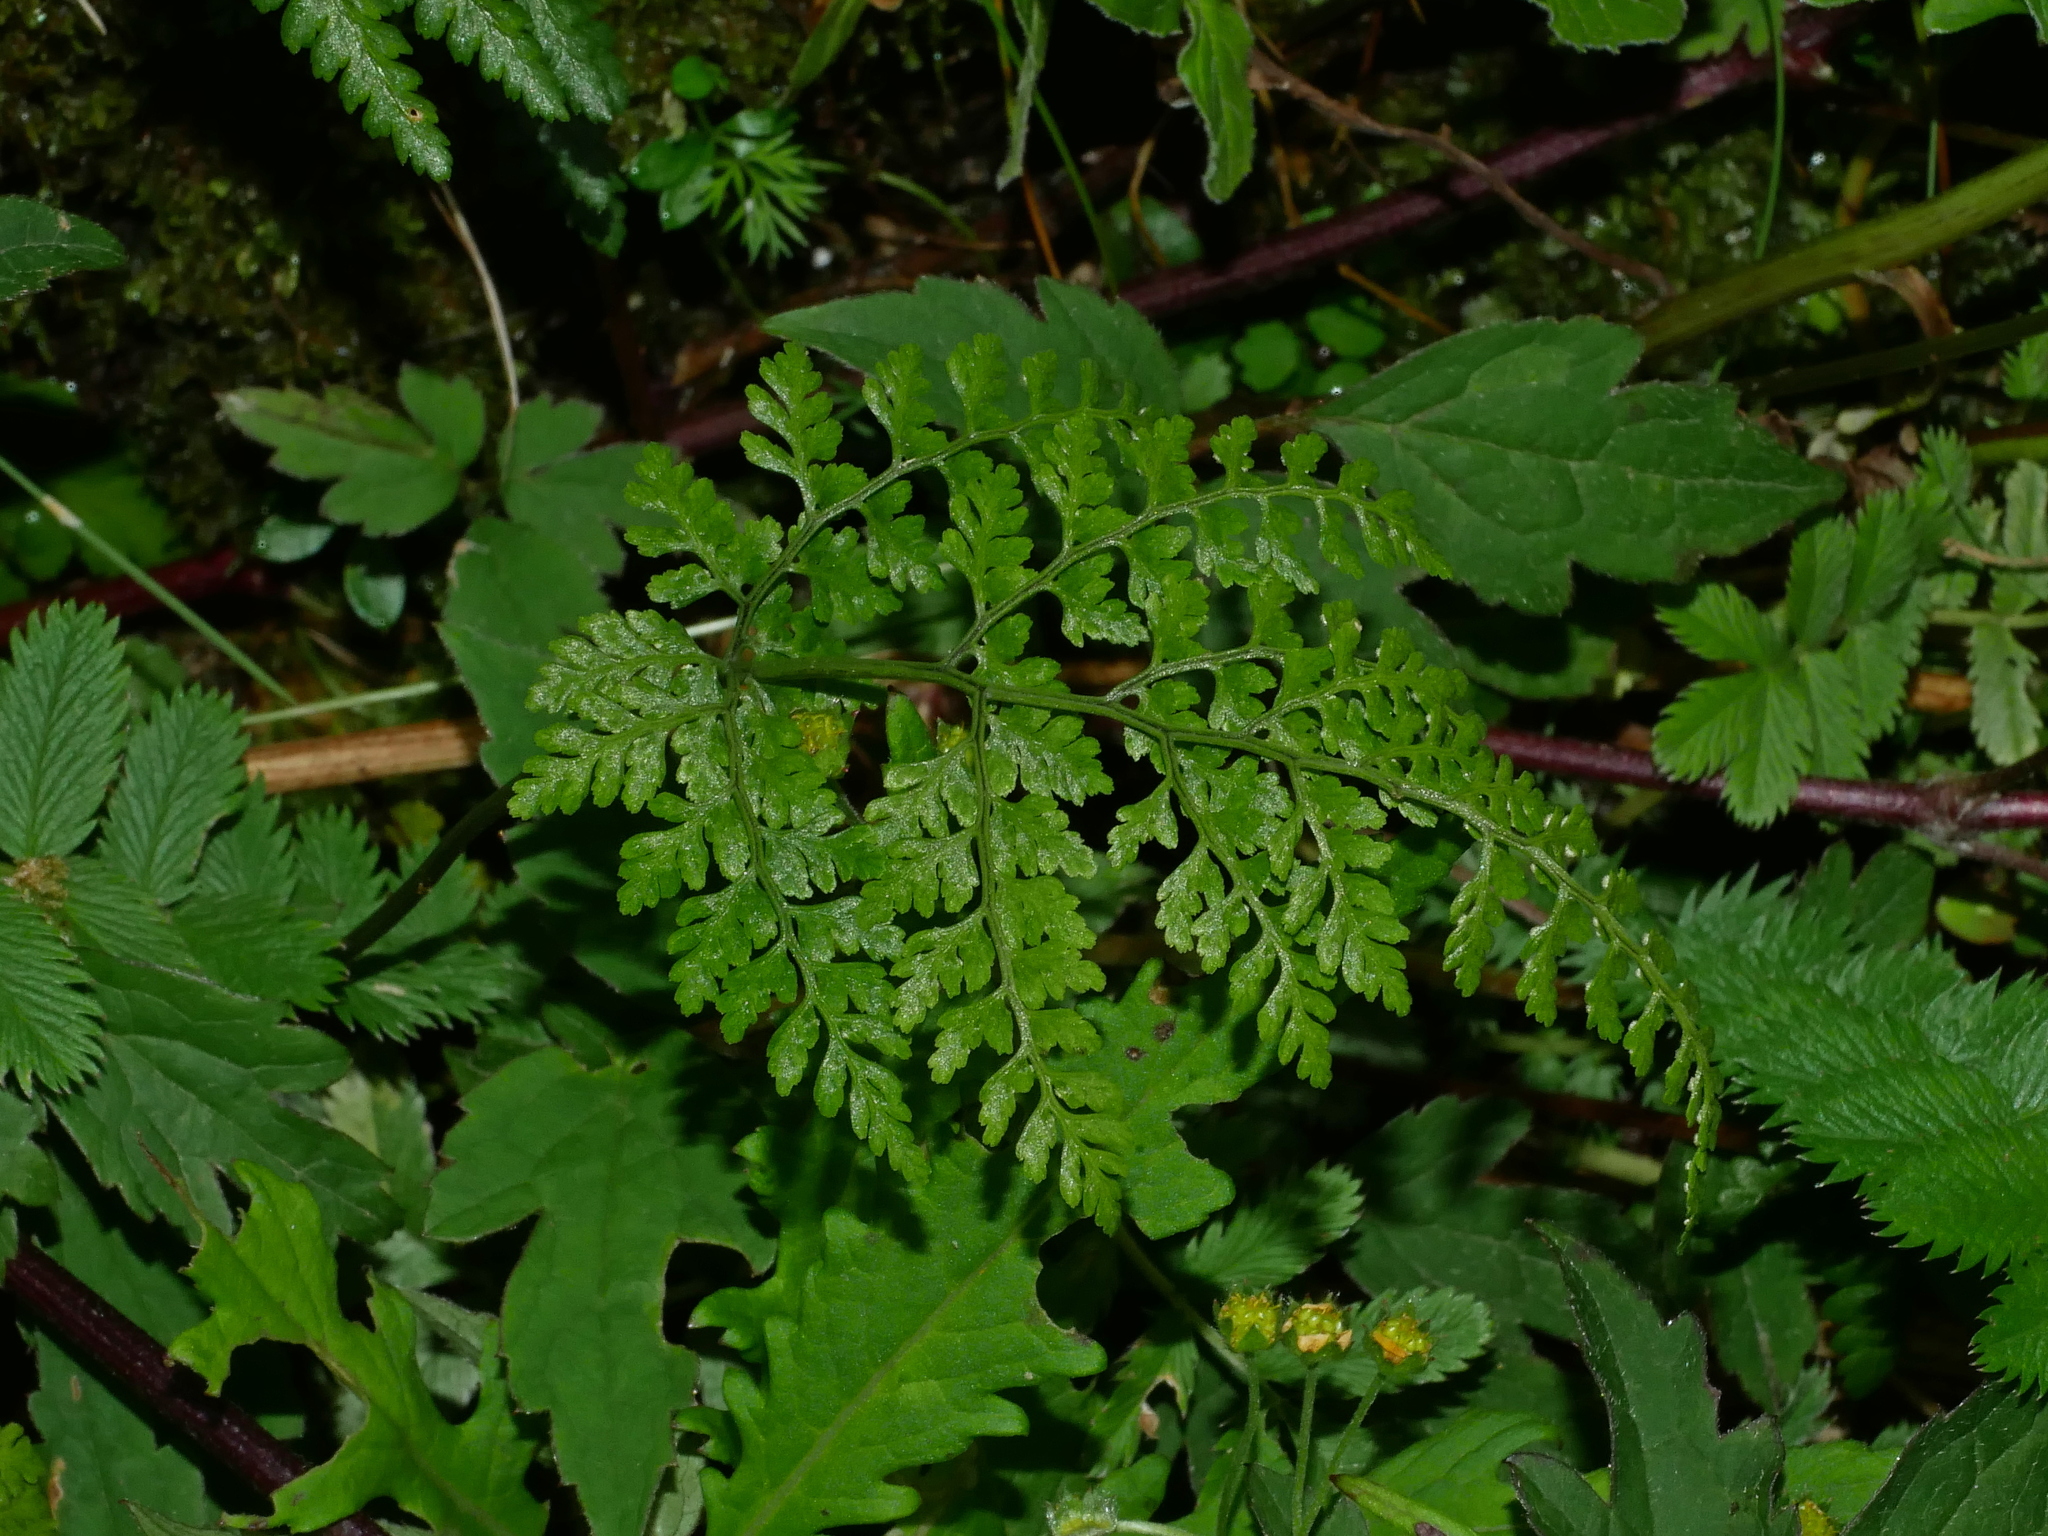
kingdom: Plantae
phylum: Tracheophyta
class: Polypodiopsida
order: Polypodiales
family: Cystopteridaceae
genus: Cystopteris
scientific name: Cystopteris moupinensis
